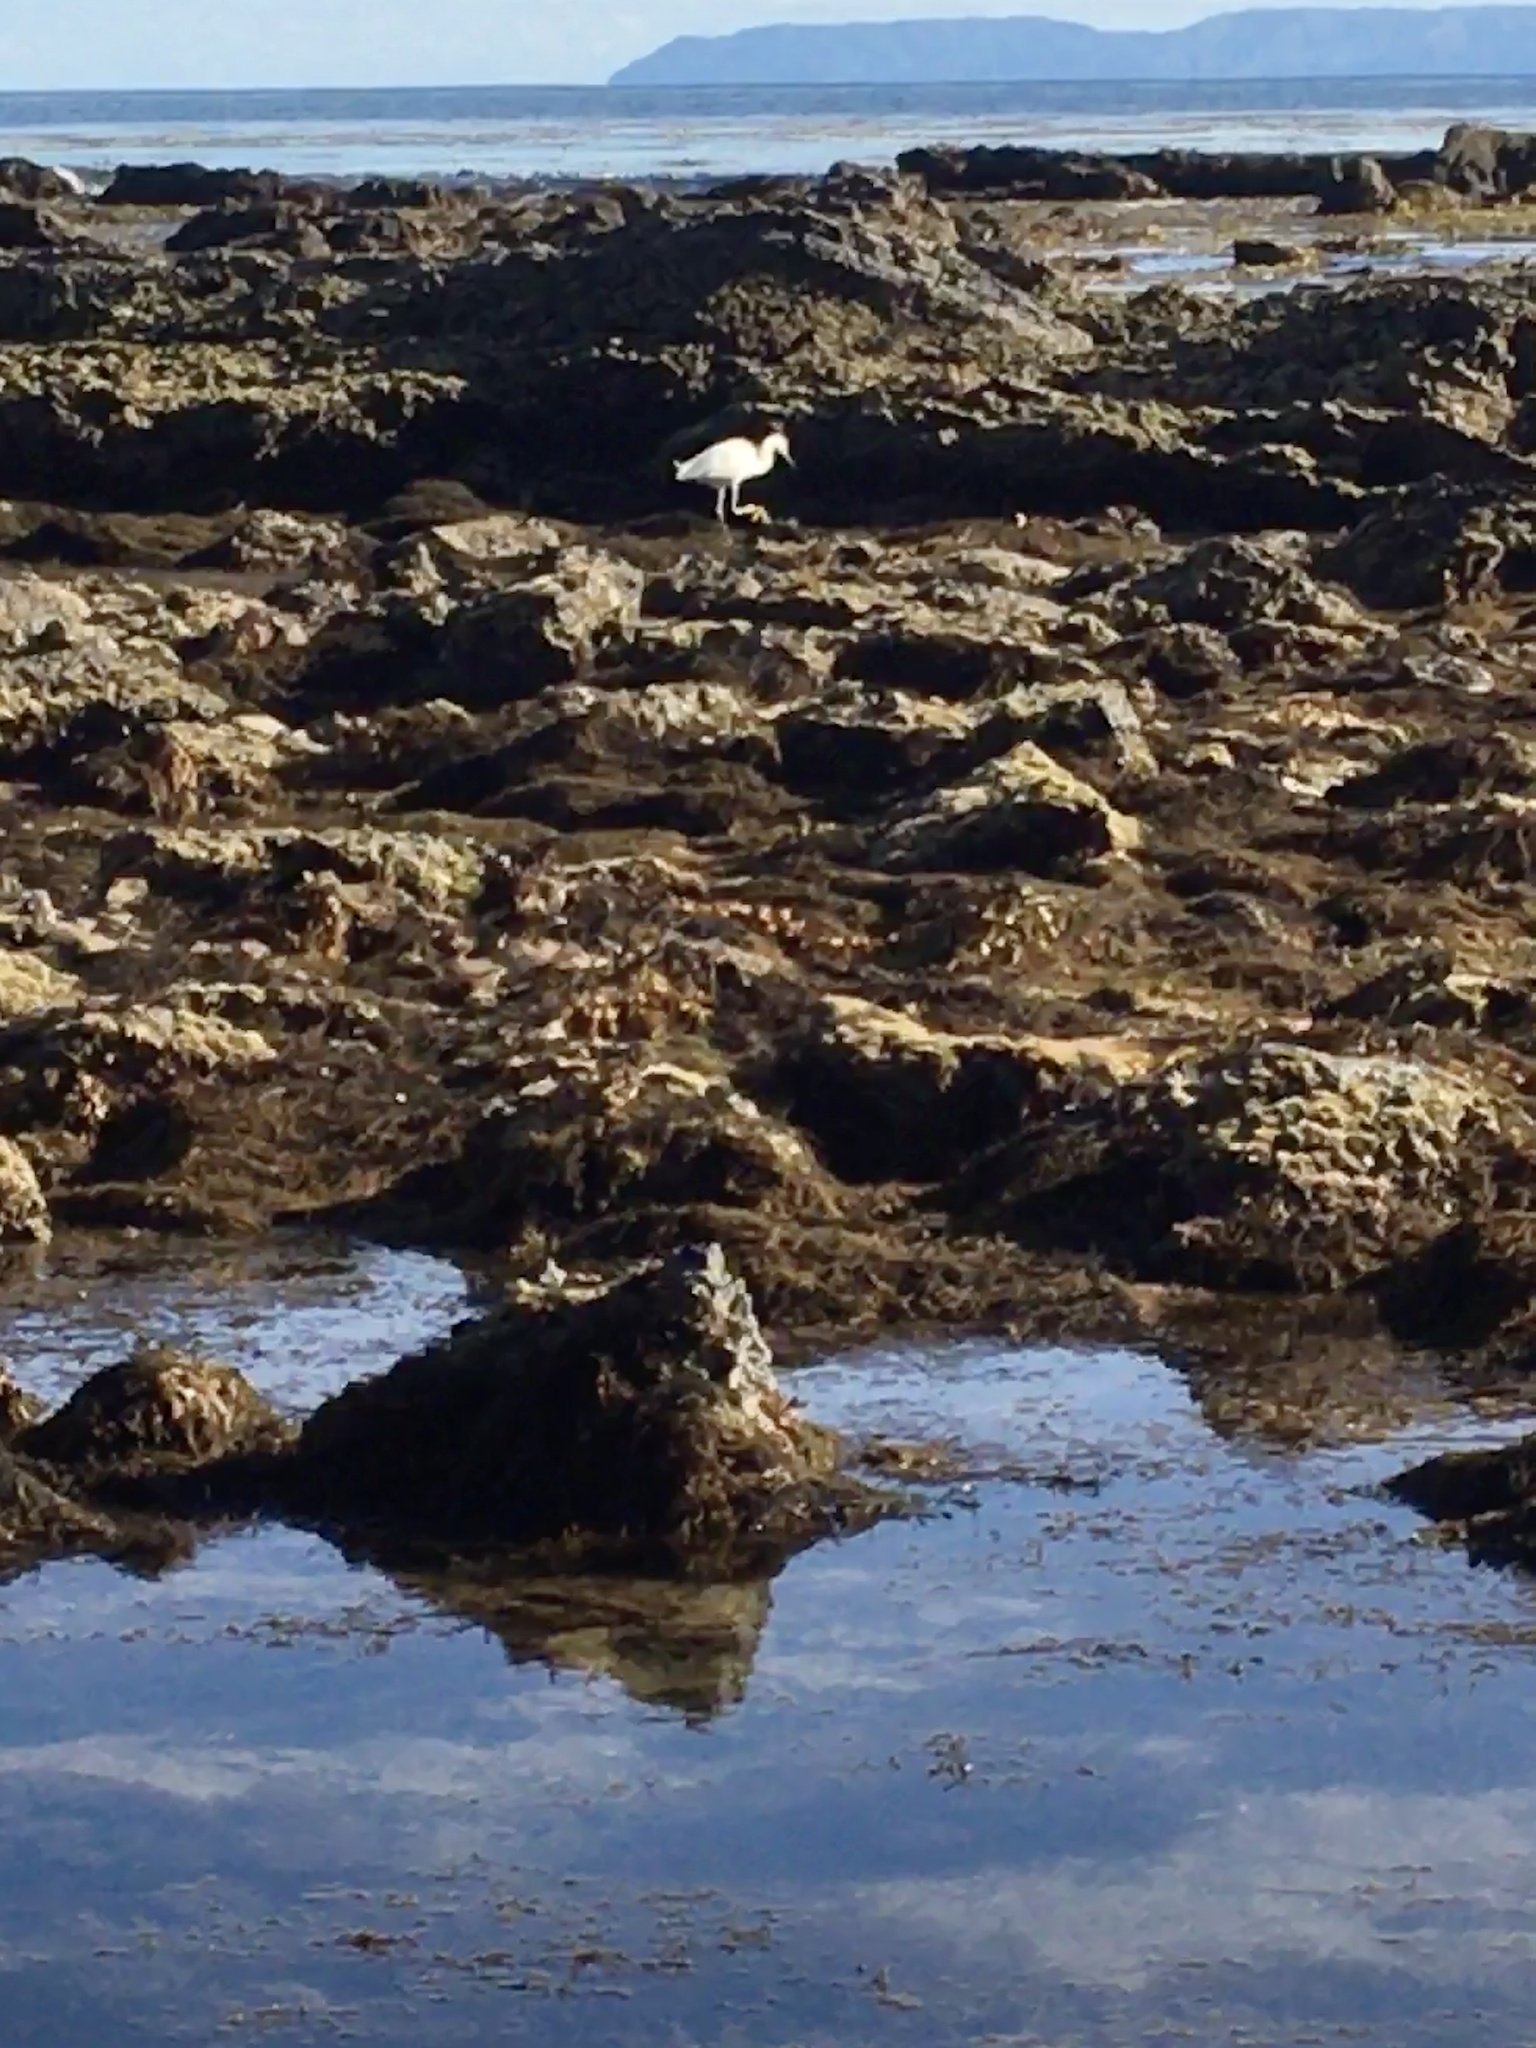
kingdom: Animalia
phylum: Chordata
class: Aves
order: Pelecaniformes
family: Ardeidae
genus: Egretta
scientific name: Egretta thula
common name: Snowy egret
